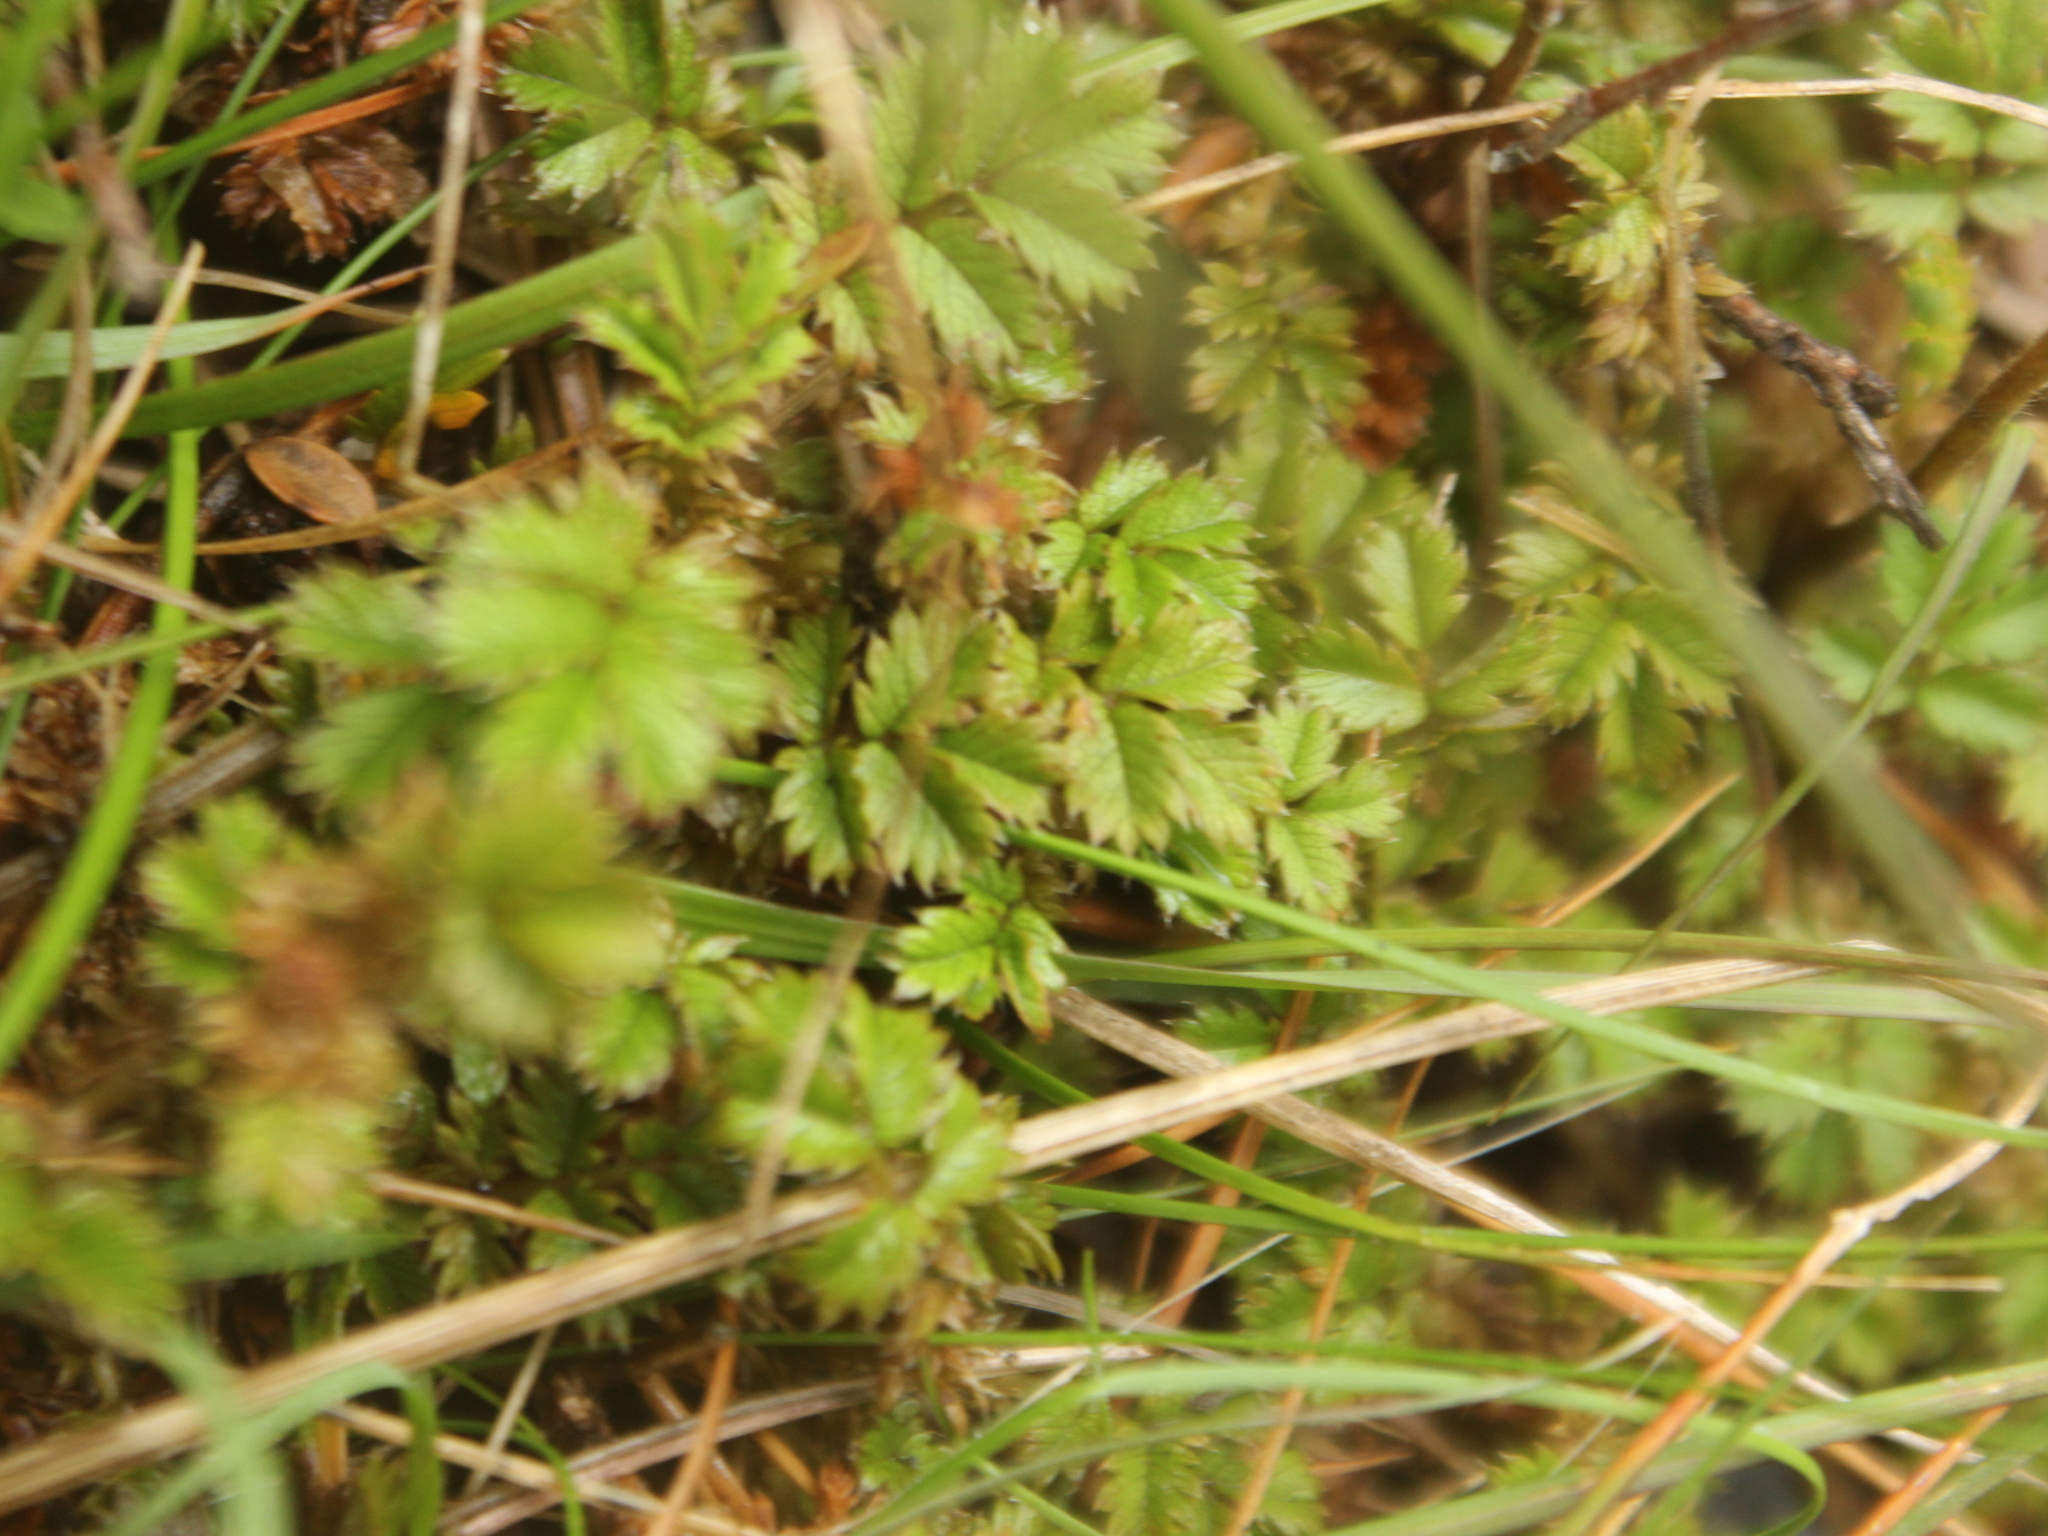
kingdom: Plantae
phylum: Tracheophyta
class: Magnoliopsida
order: Rosales
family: Rosaceae
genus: Acaena
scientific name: Acaena anserinifolia
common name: Bronze pirri-pirri-bur
